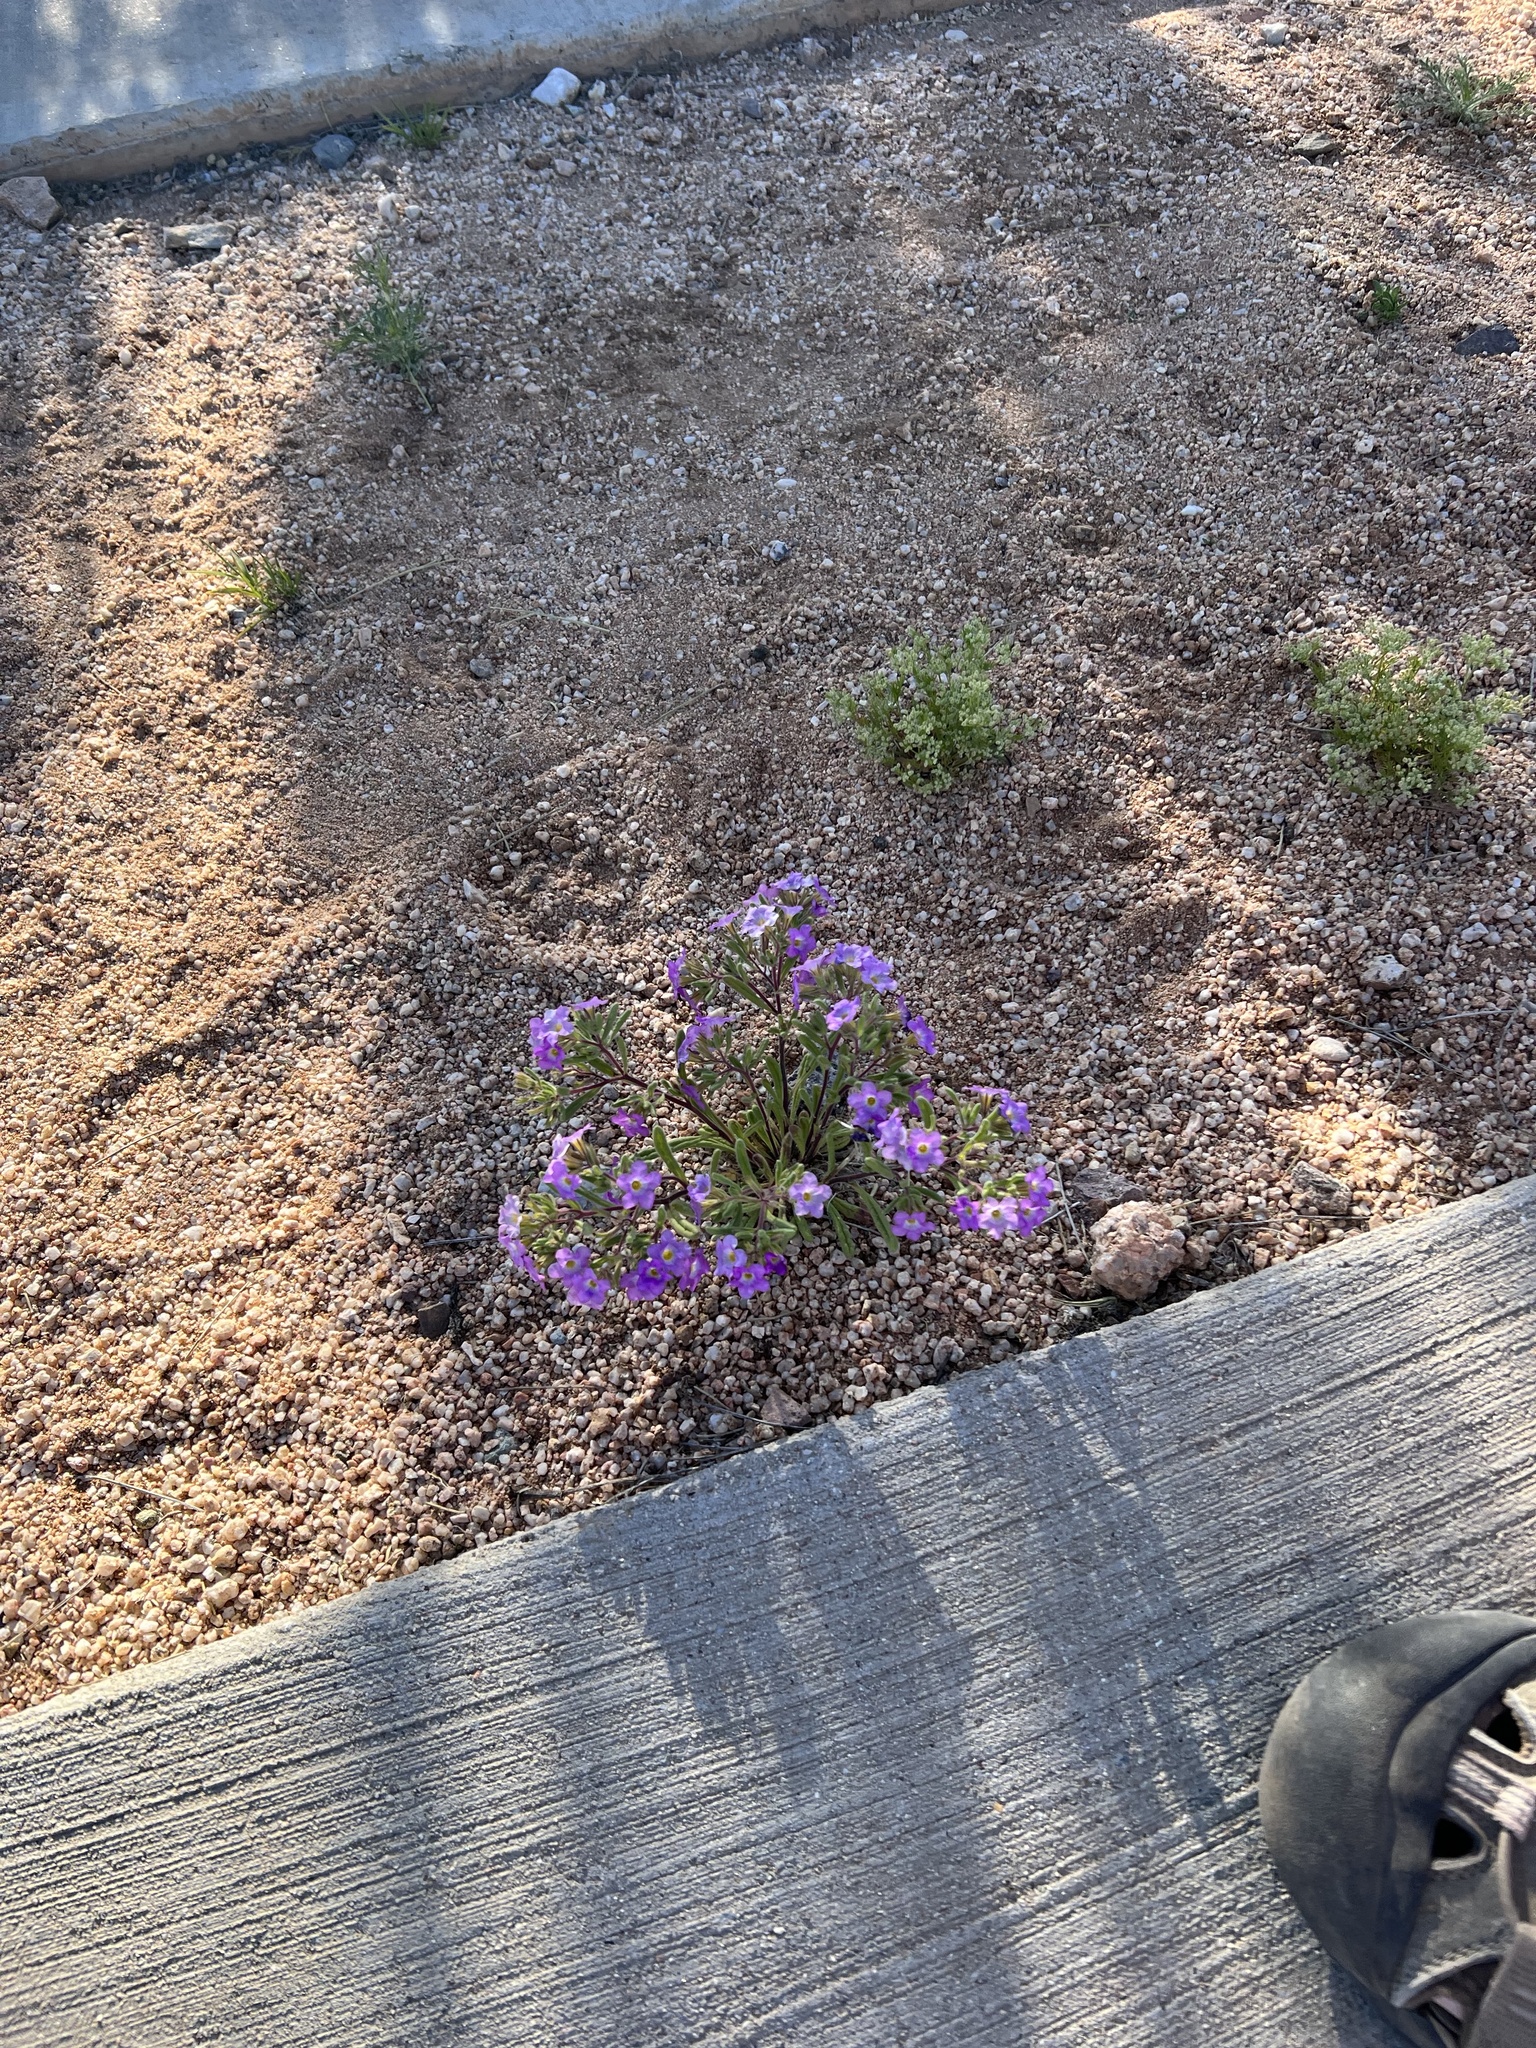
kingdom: Plantae
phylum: Tracheophyta
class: Magnoliopsida
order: Boraginales
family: Namaceae
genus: Nama
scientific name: Nama hispida
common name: Bristly nama
